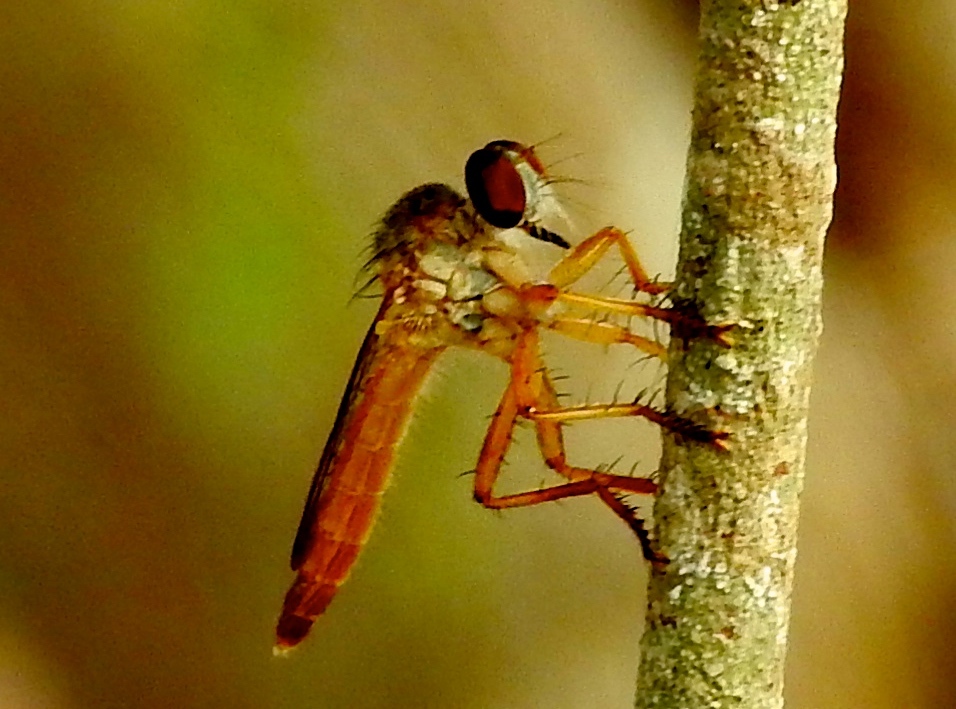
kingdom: Animalia
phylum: Arthropoda
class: Insecta
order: Diptera
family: Asilidae
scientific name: Asilidae
